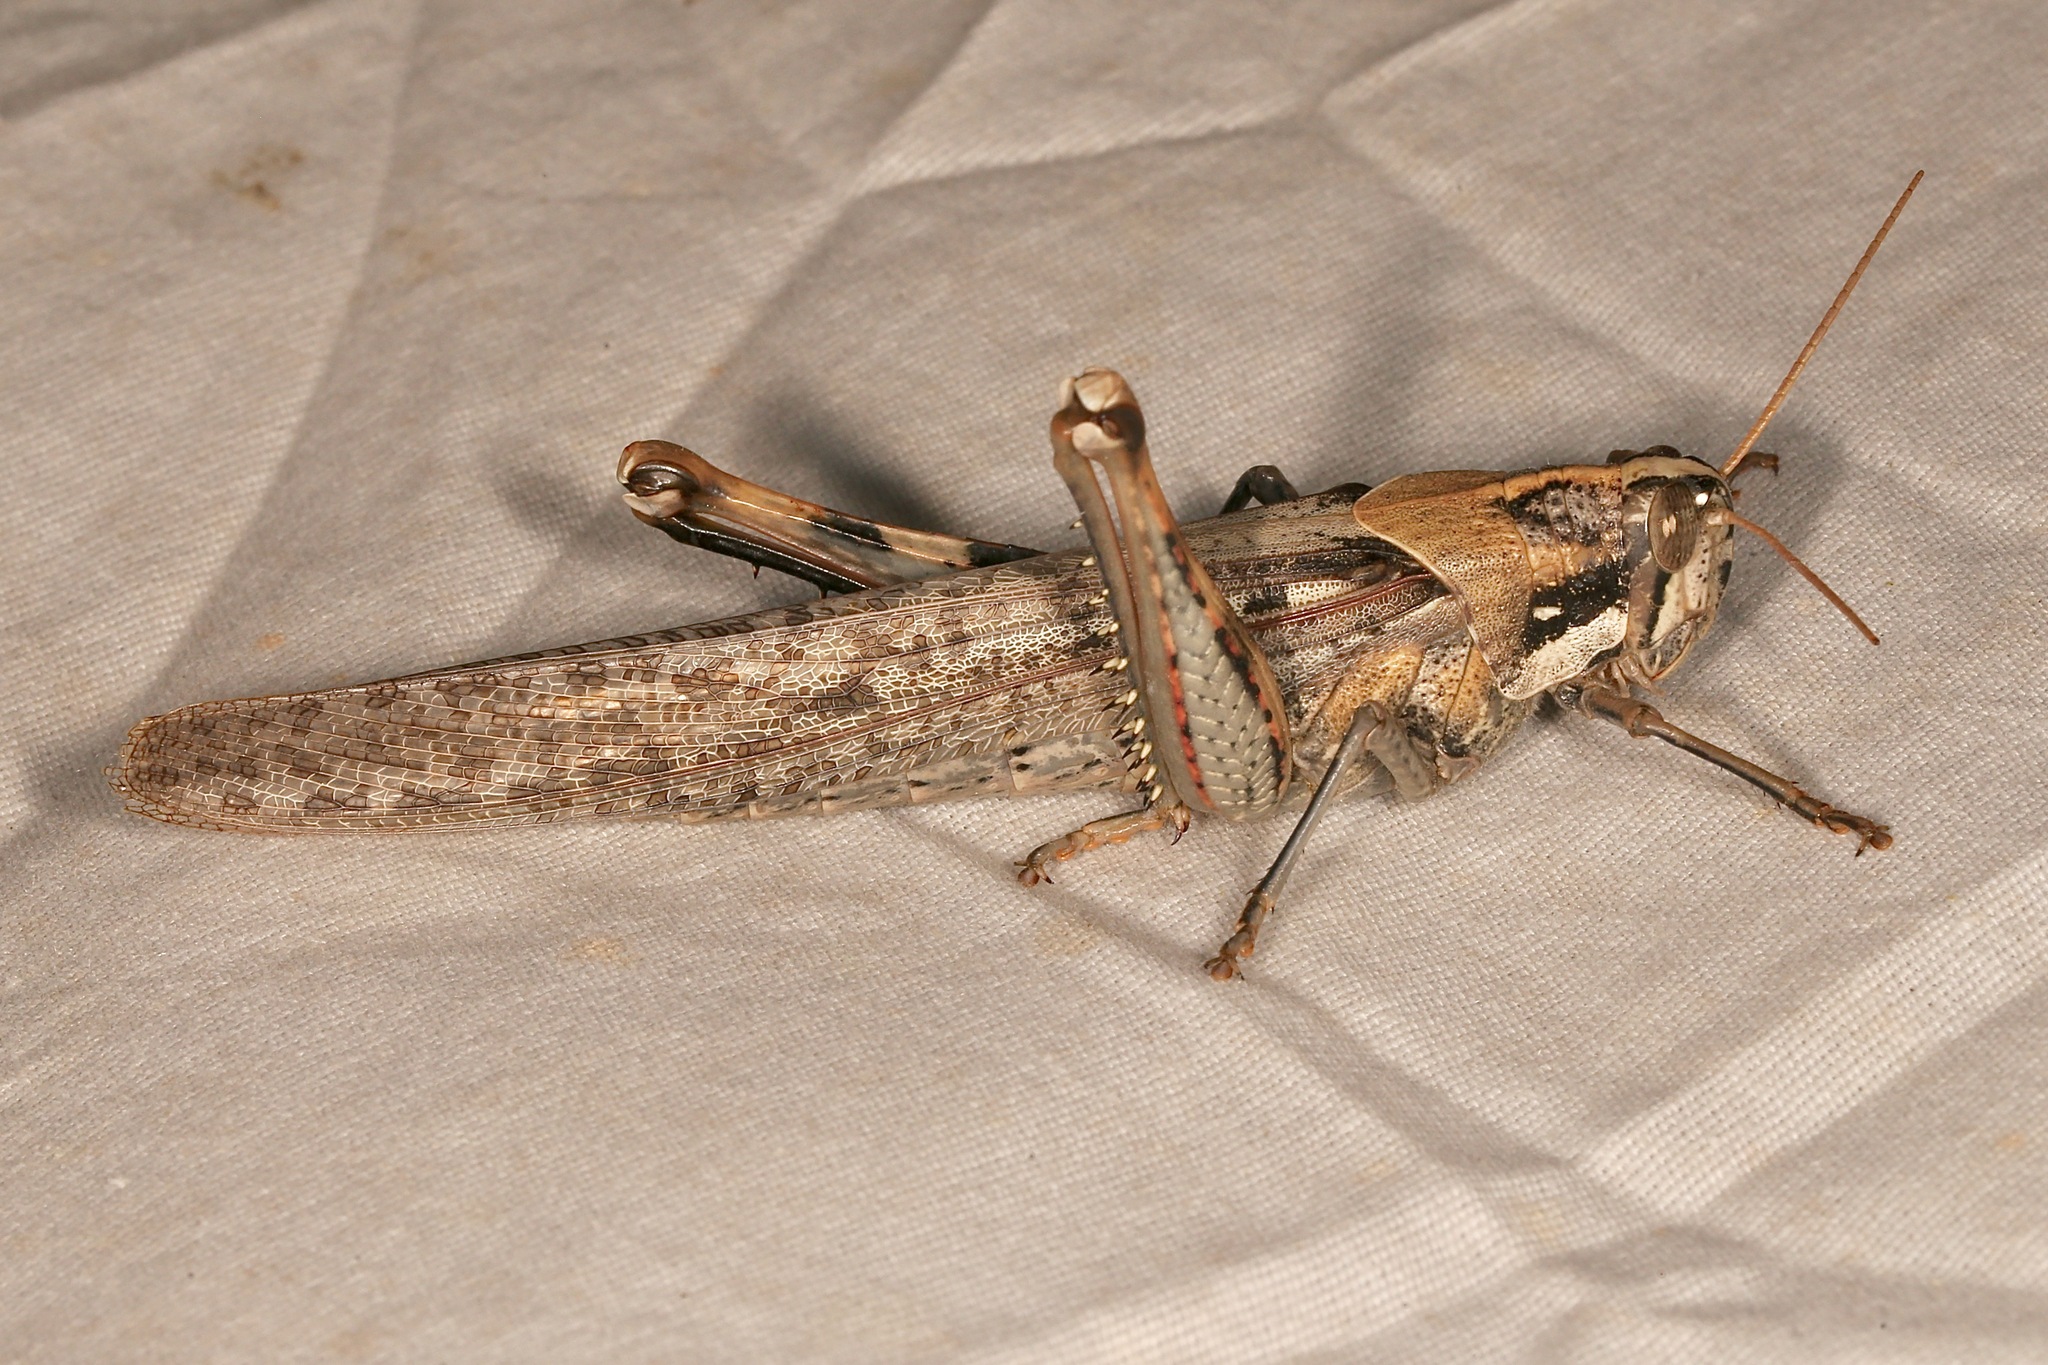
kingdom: Animalia
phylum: Arthropoda
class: Insecta
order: Orthoptera
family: Acrididae
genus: Schistocerca
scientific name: Schistocerca nitens
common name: Vagrant grasshopper
